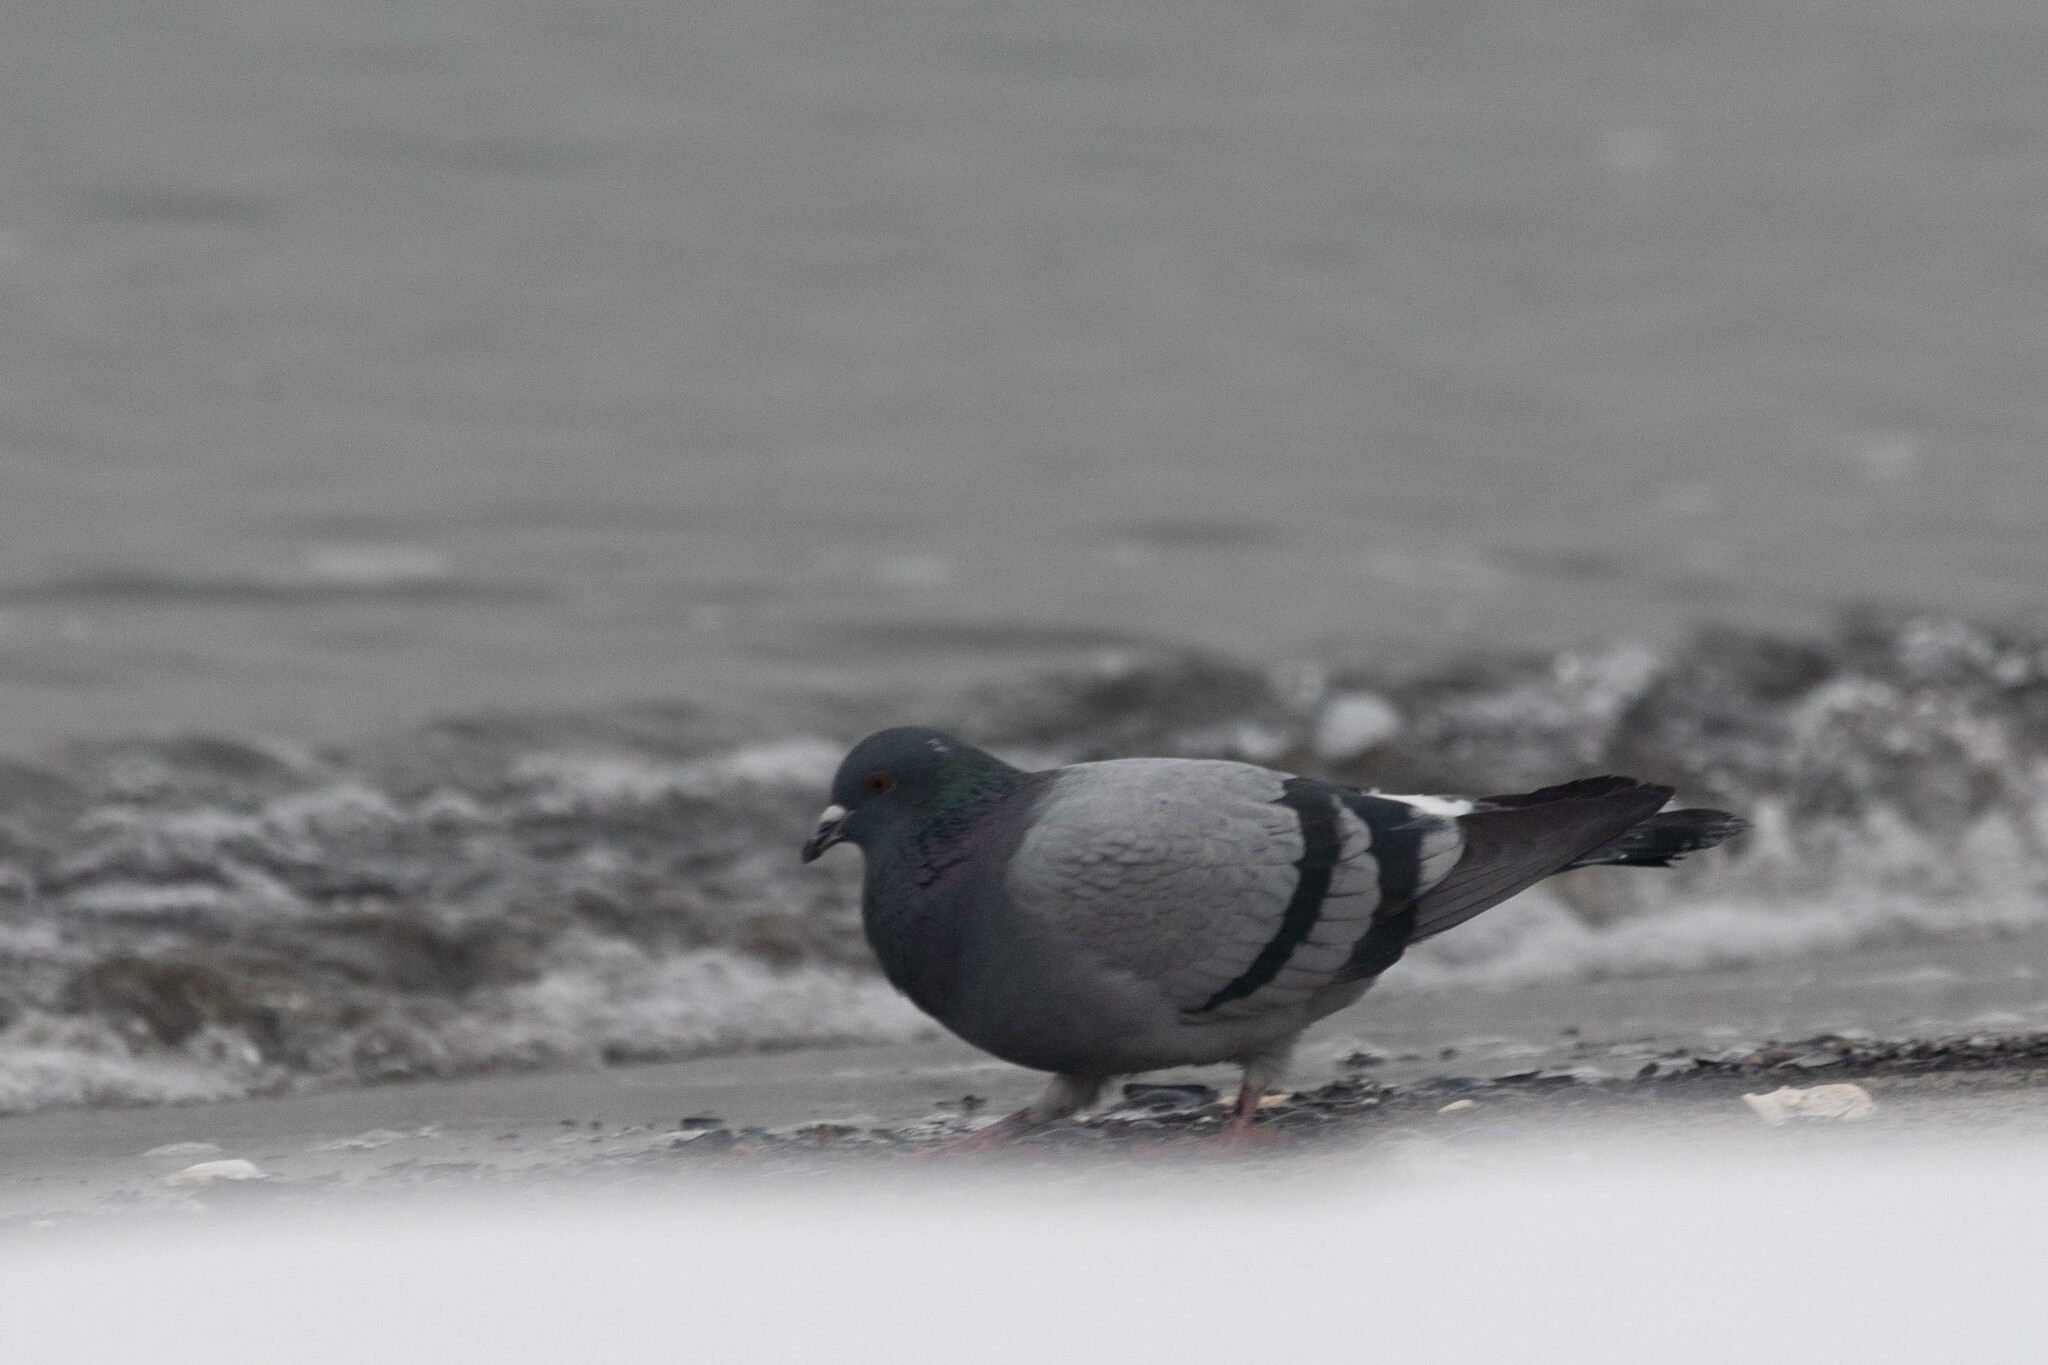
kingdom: Animalia
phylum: Chordata
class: Aves
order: Columbiformes
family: Columbidae
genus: Columba
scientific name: Columba livia
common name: Rock pigeon
